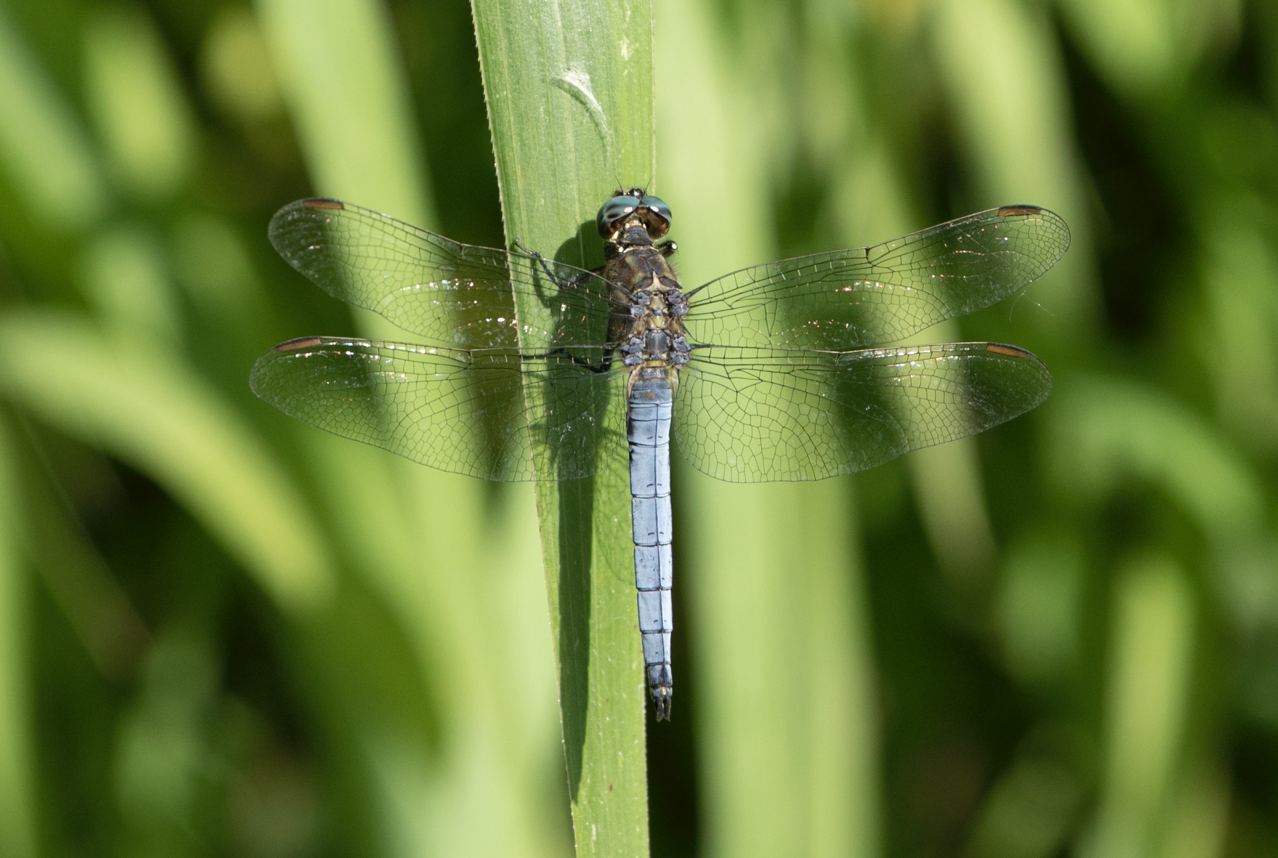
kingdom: Animalia
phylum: Arthropoda
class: Insecta
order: Odonata
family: Libellulidae
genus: Orthetrum
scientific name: Orthetrum coerulescens
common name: Keeled skimmer
